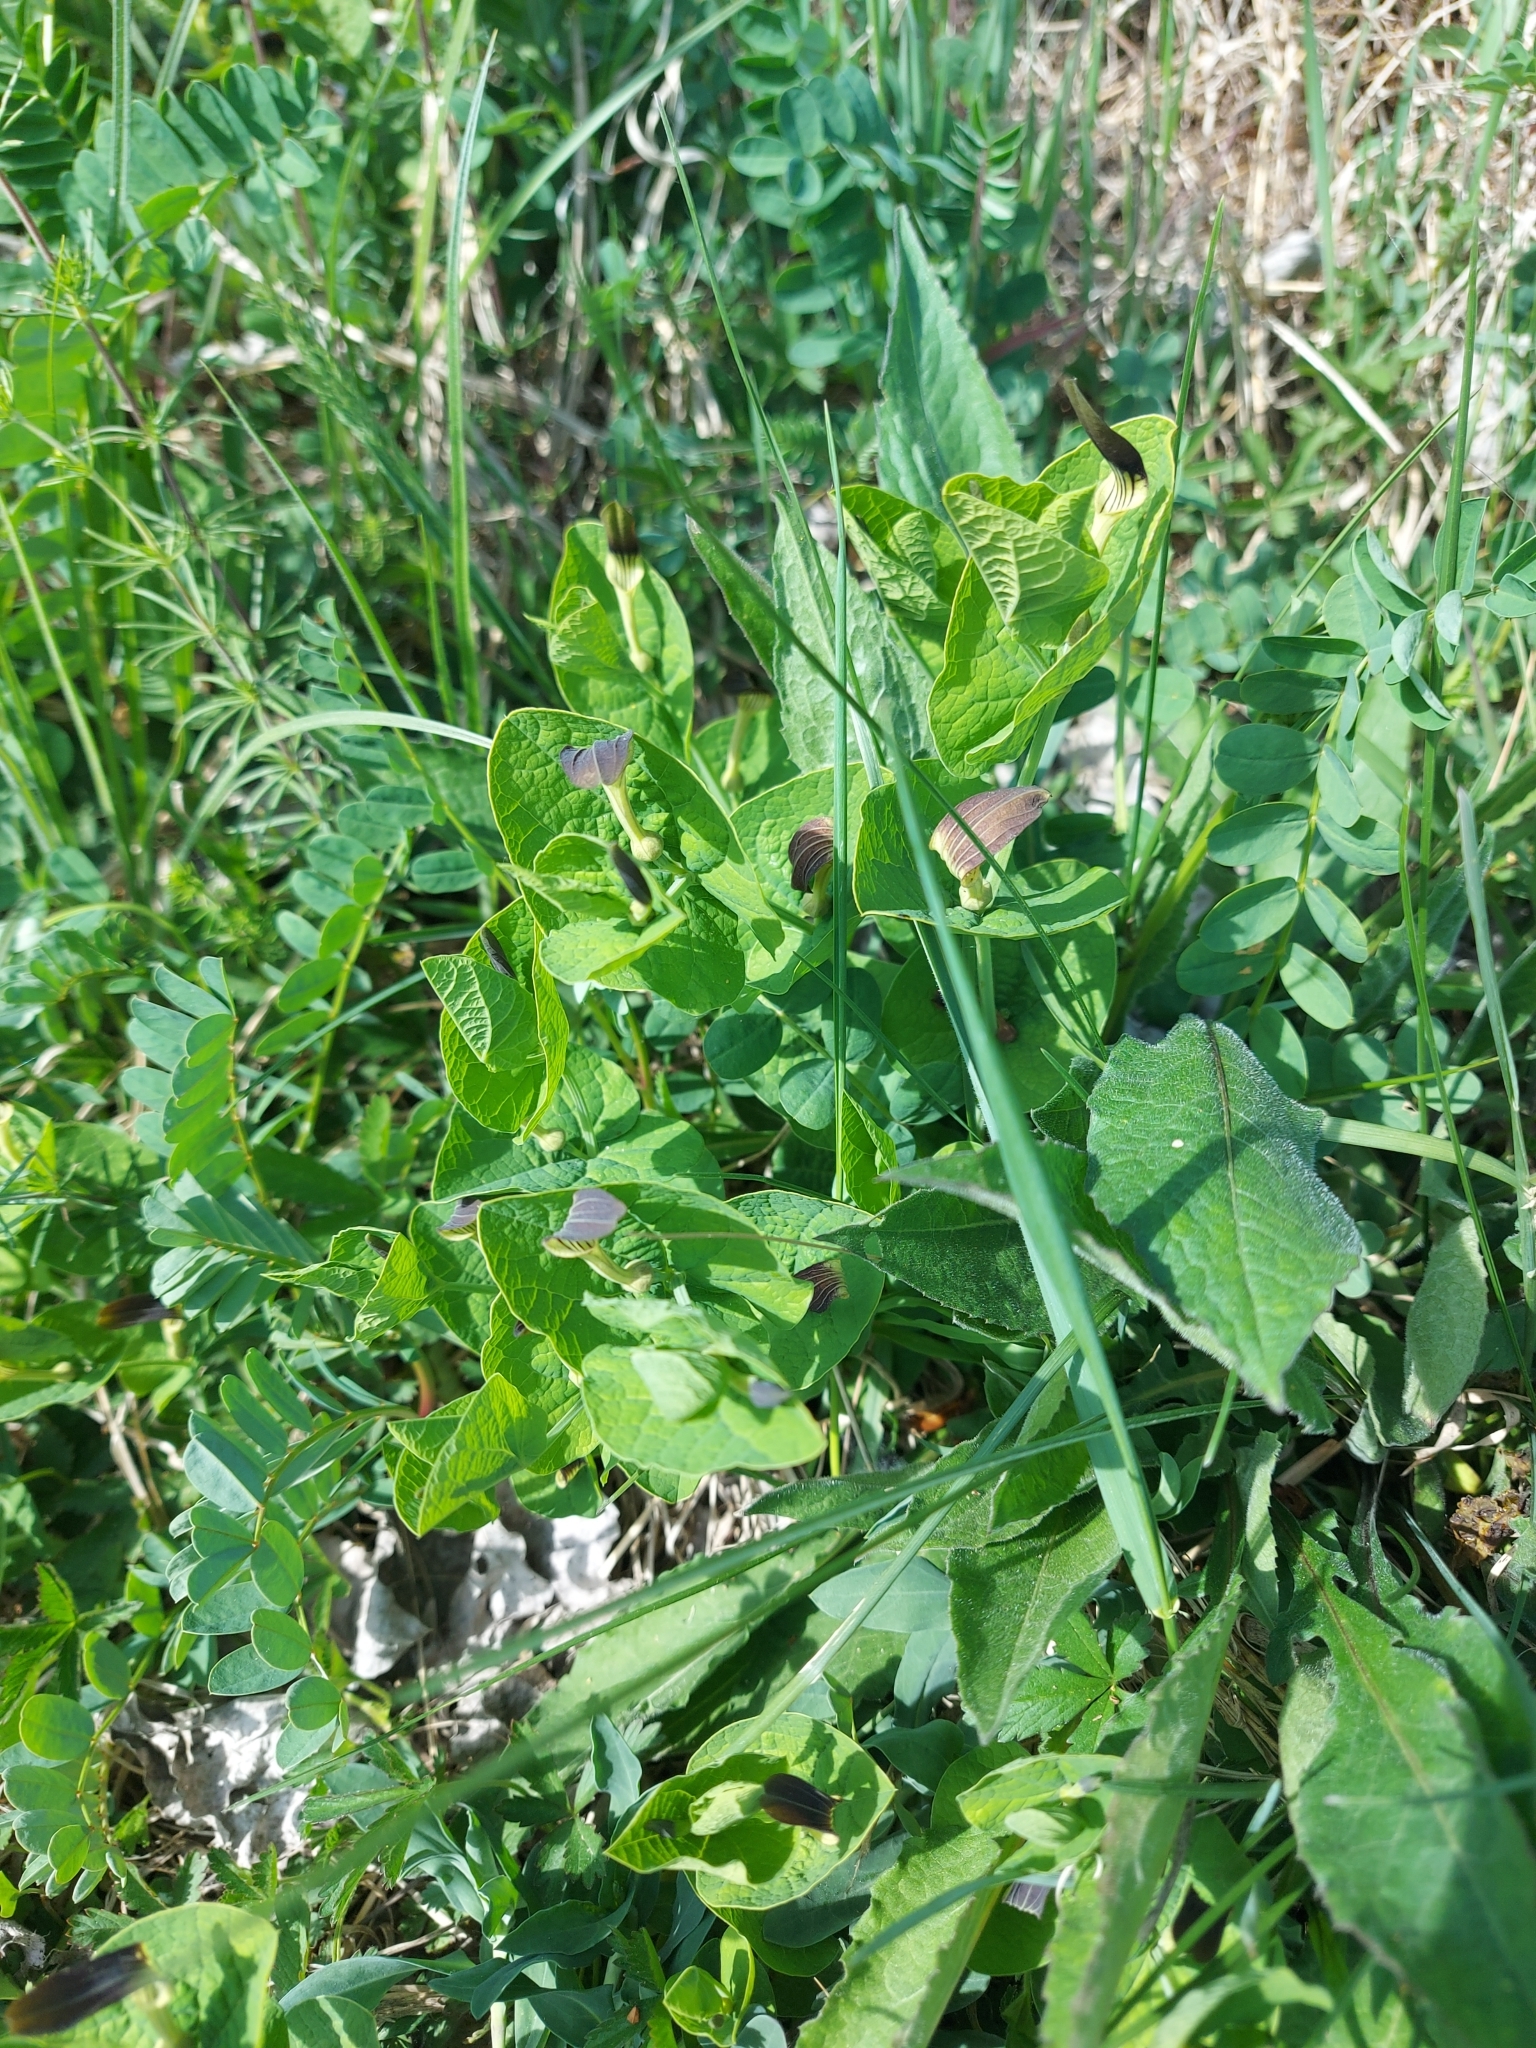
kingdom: Plantae
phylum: Tracheophyta
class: Magnoliopsida
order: Piperales
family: Aristolochiaceae
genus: Aristolochia
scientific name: Aristolochia rotunda
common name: Smearwort
